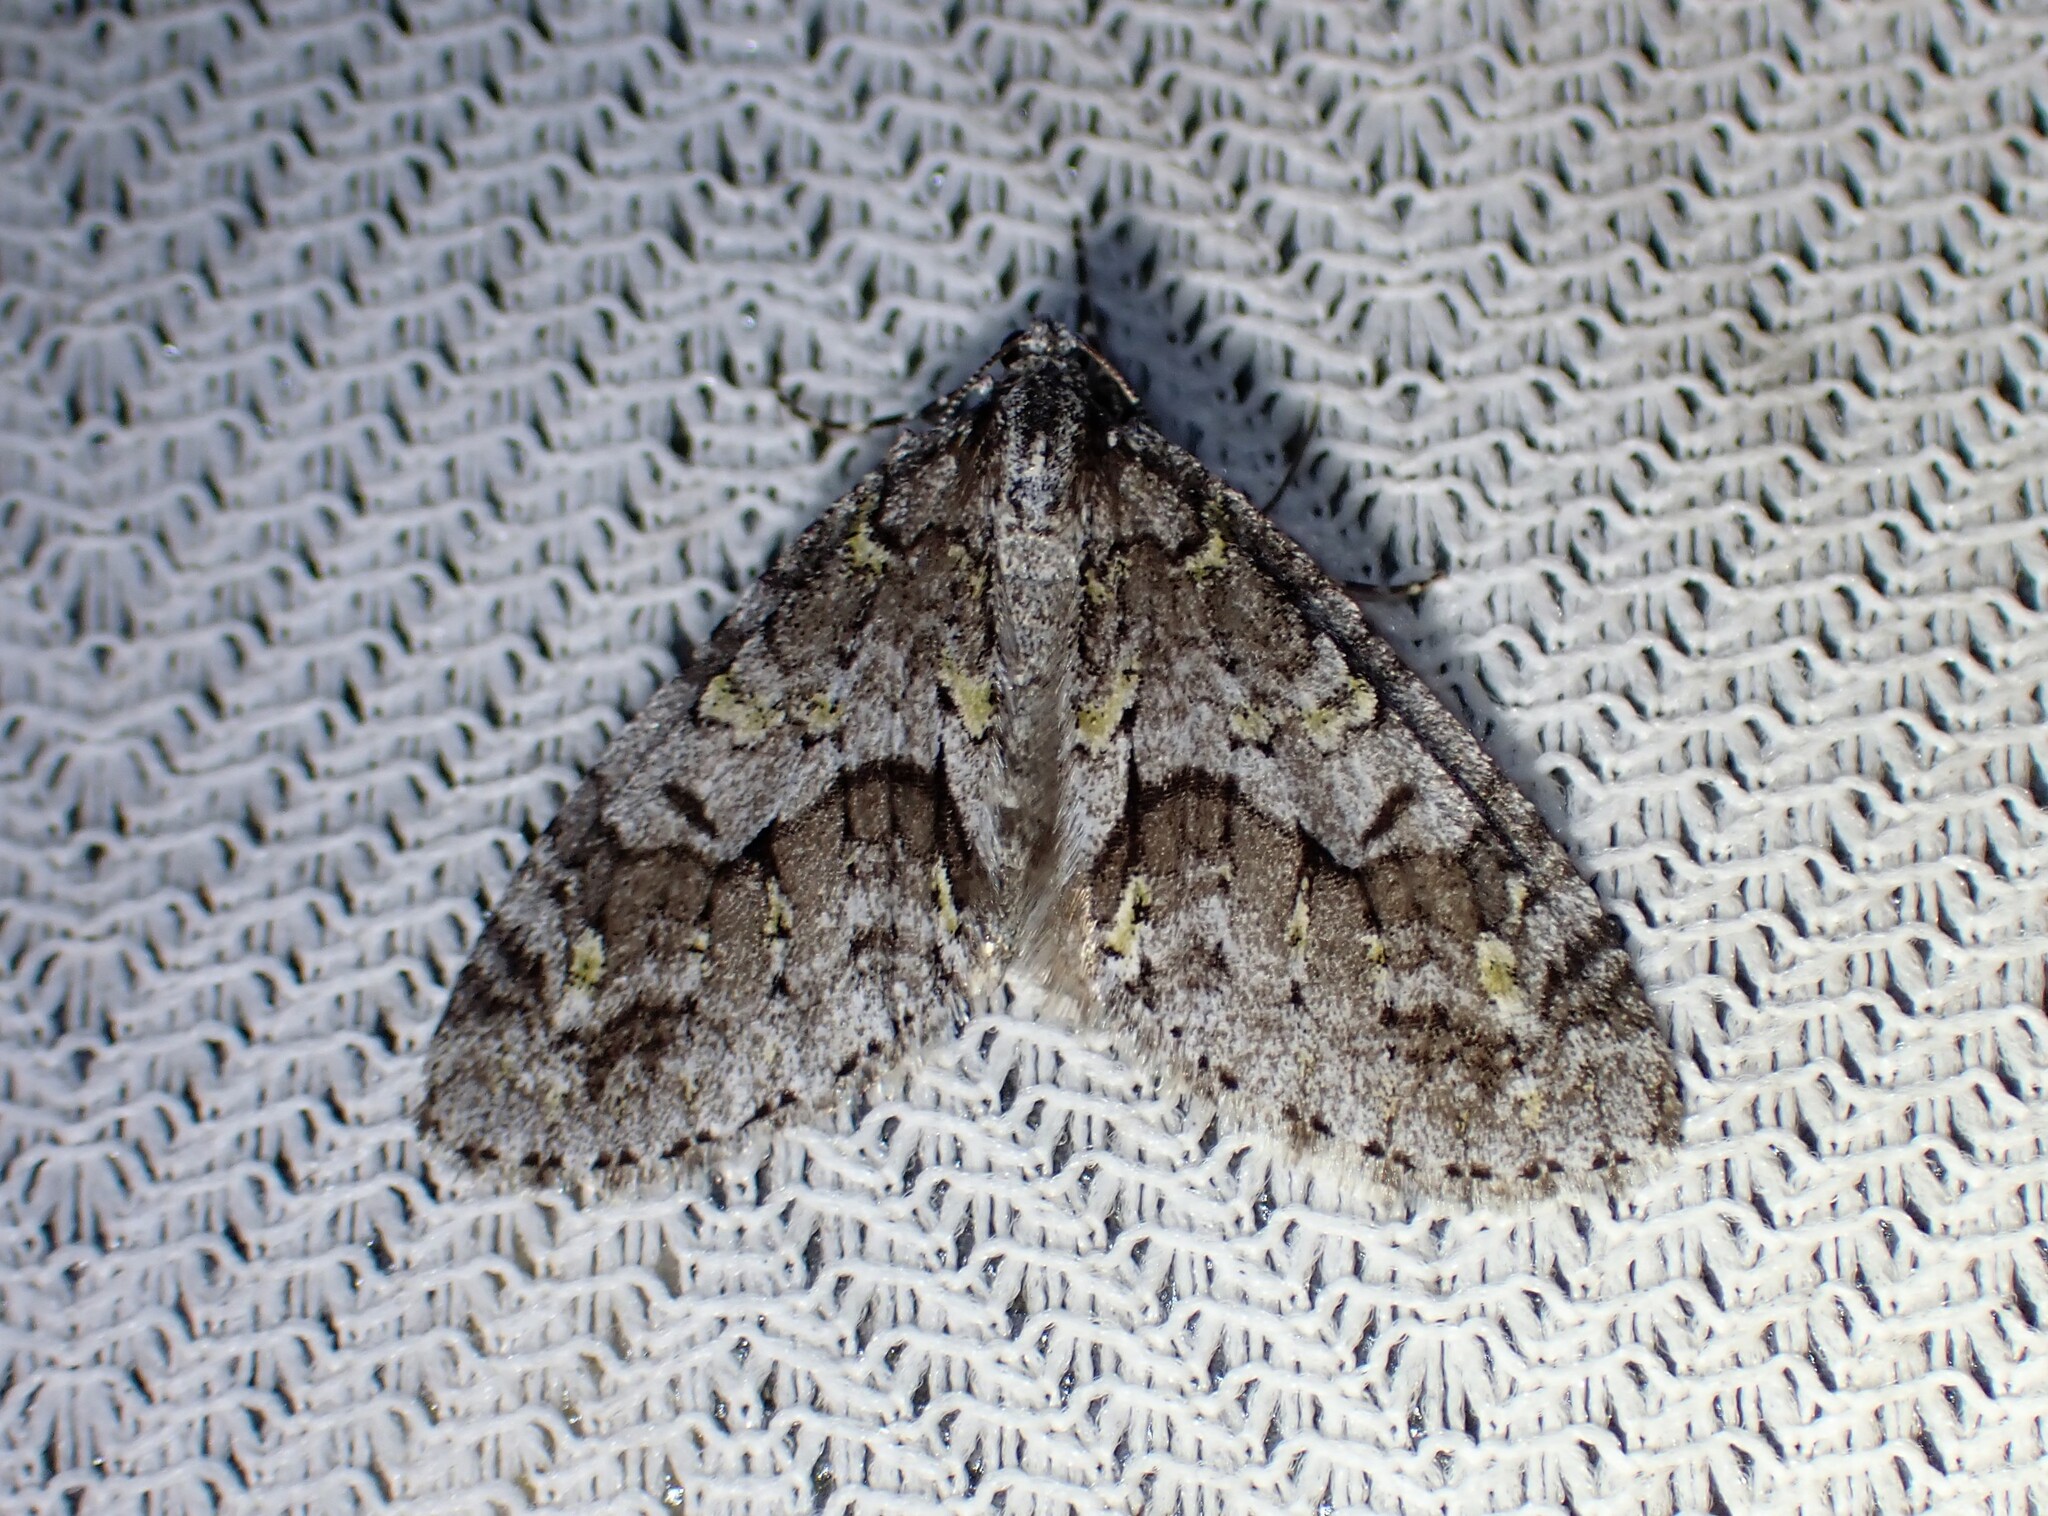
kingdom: Animalia
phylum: Arthropoda
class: Insecta
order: Lepidoptera
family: Geometridae
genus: Cladara
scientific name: Cladara limitaria
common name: Mottled gray carpet
